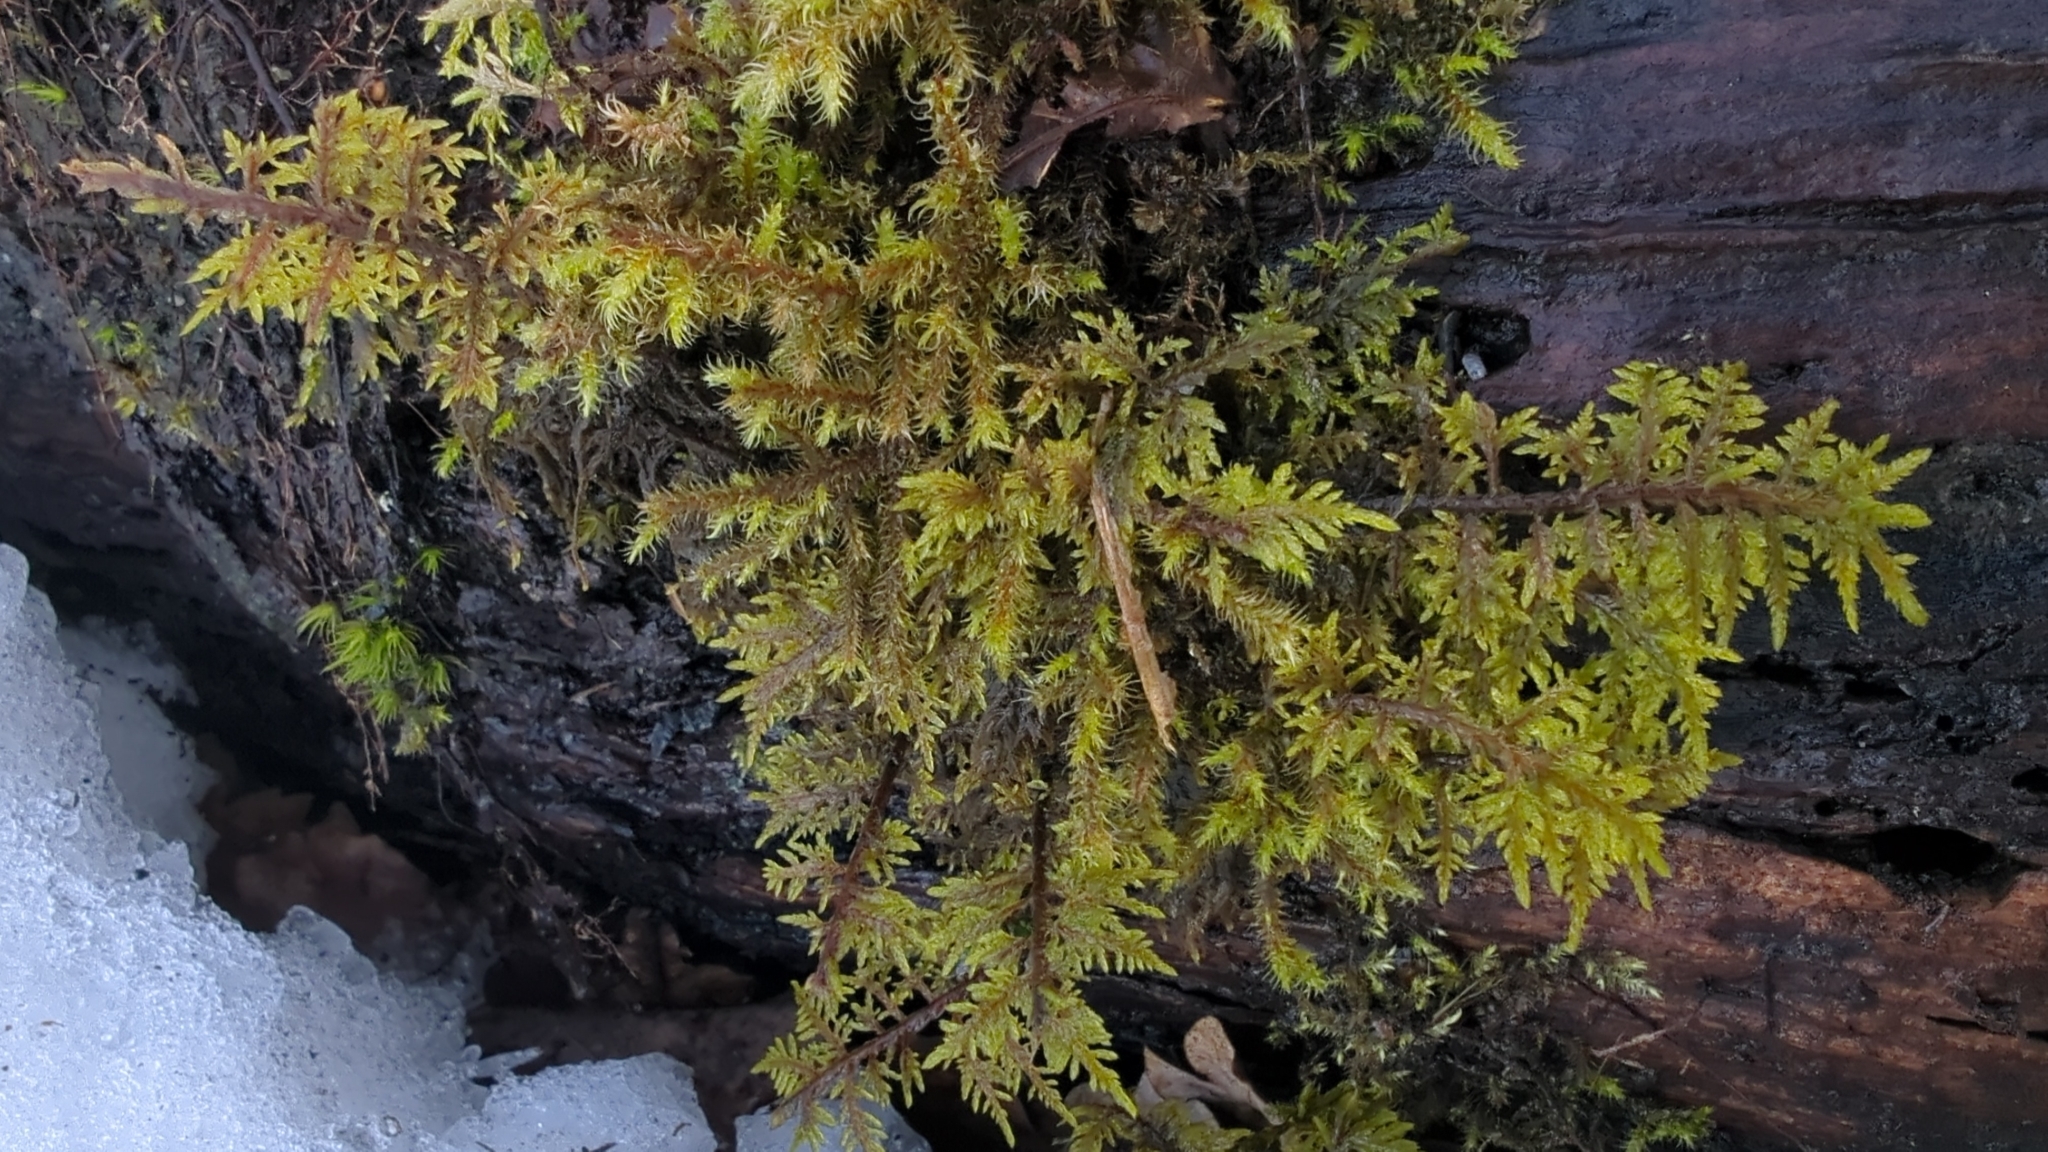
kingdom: Plantae
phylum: Bryophyta
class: Bryopsida
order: Hypnales
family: Hylocomiaceae
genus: Hylocomium
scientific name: Hylocomium splendens
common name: Stairstep moss
